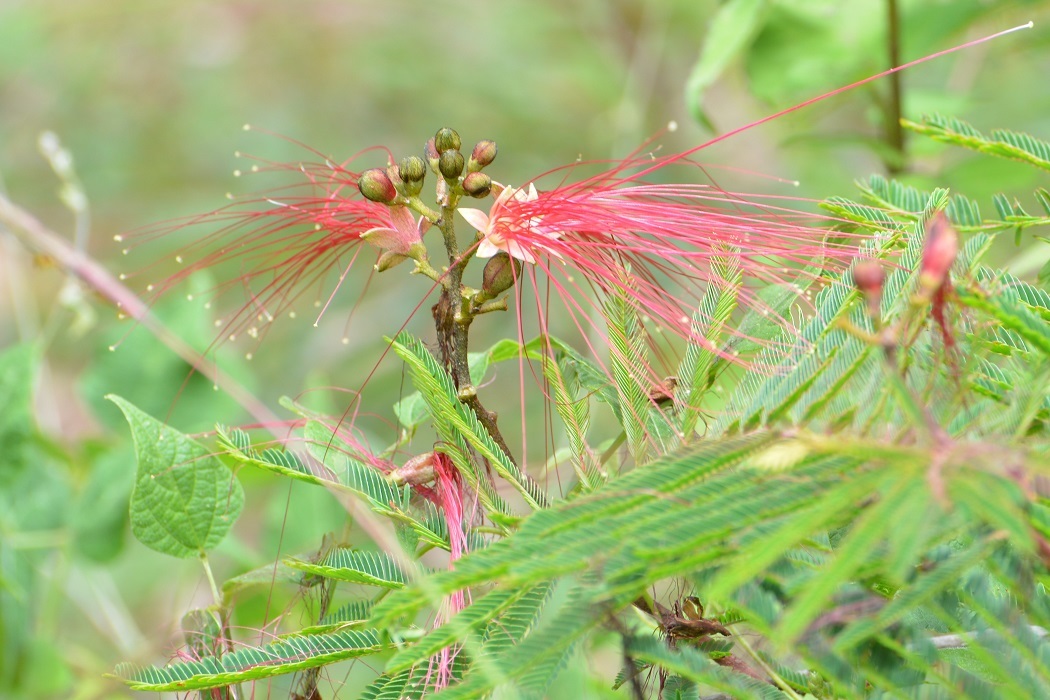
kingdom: Plantae
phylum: Tracheophyta
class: Magnoliopsida
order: Fabales
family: Fabaceae
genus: Calliandra
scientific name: Calliandra houstoniana
